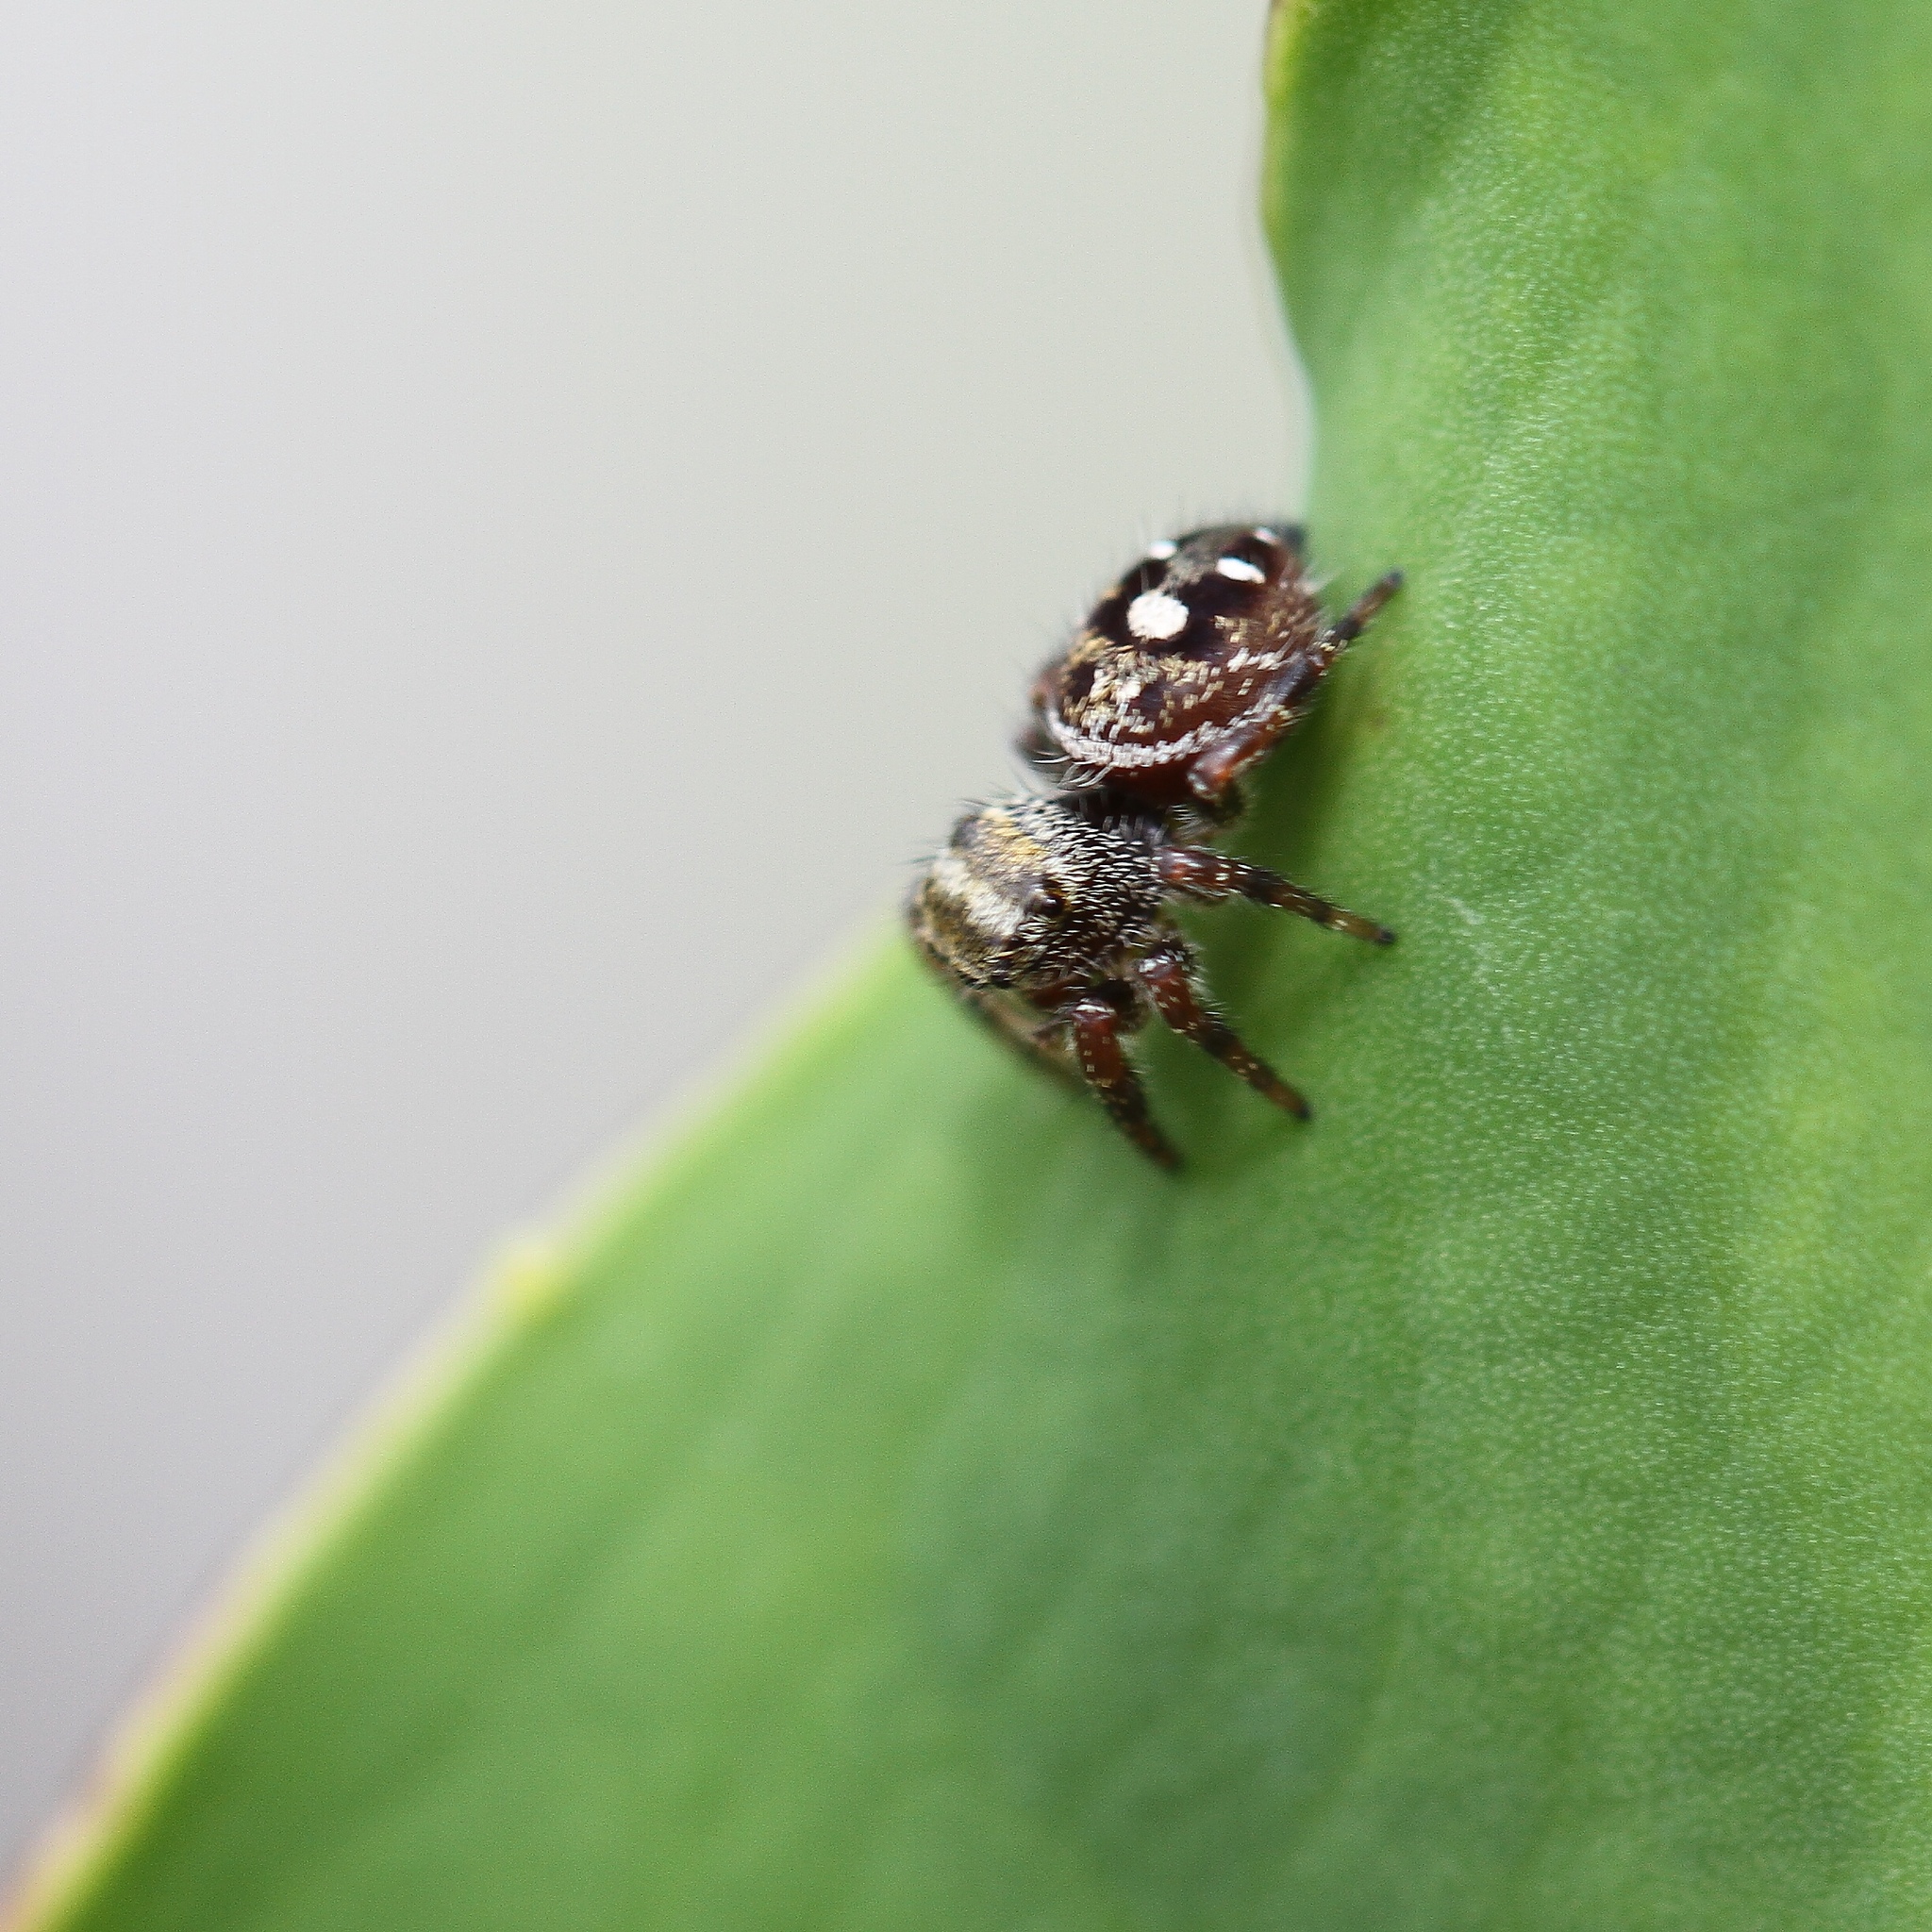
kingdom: Animalia
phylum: Arthropoda
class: Arachnida
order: Araneae
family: Salticidae
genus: Phidippus
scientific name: Phidippus audax
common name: Bold jumper
